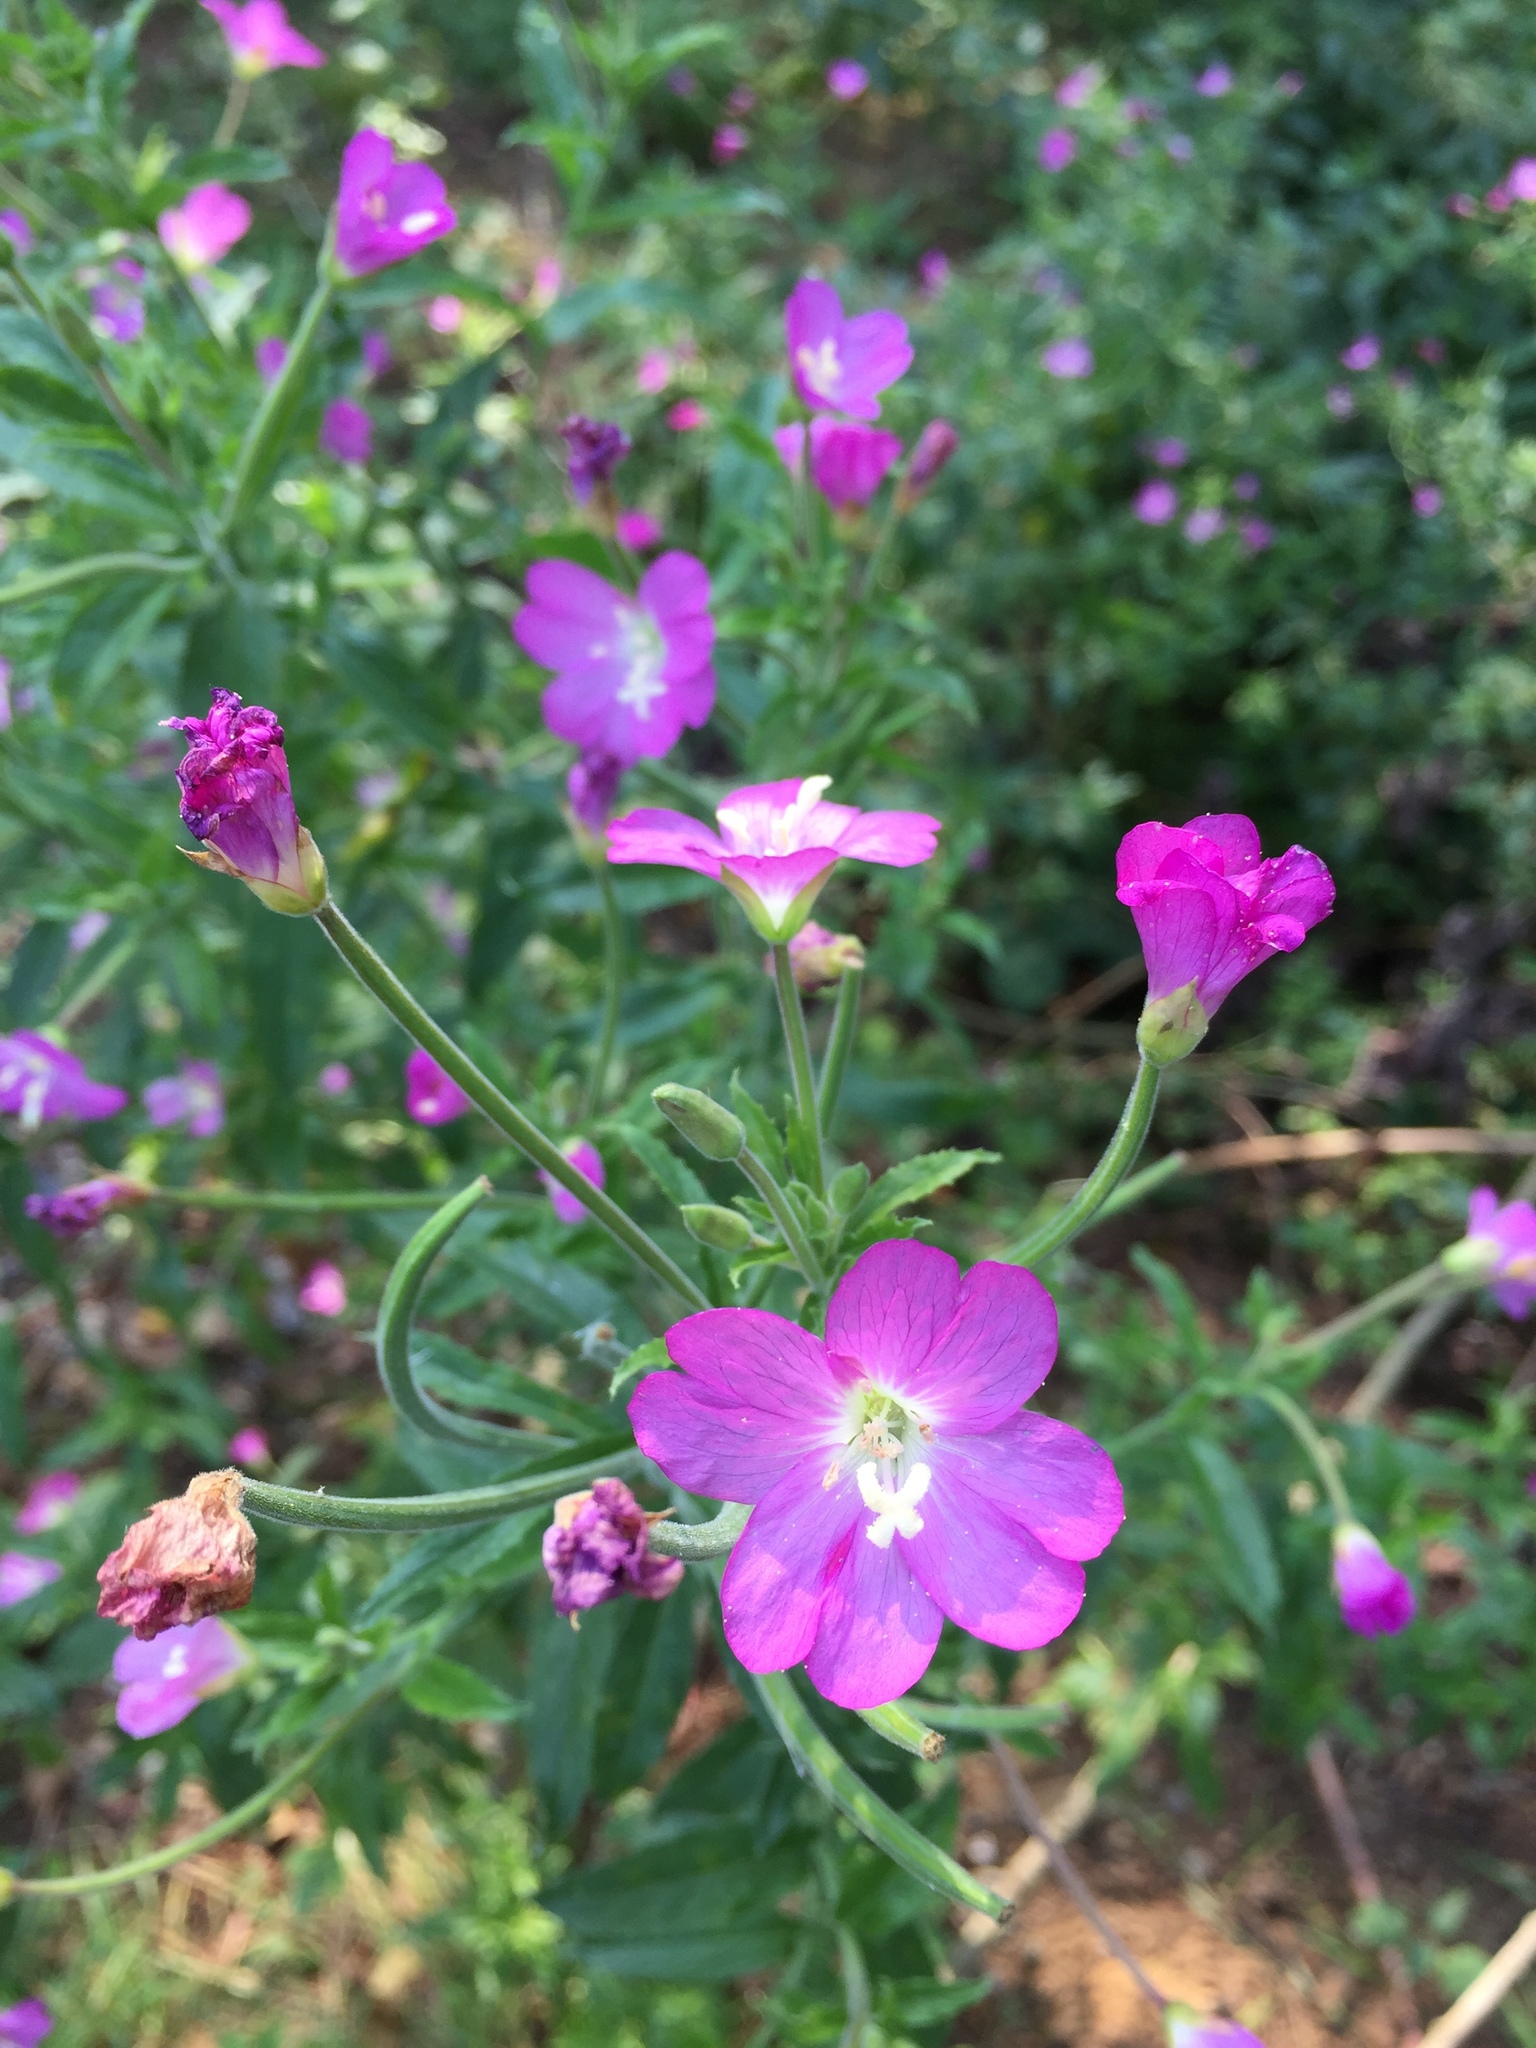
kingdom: Plantae
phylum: Tracheophyta
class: Magnoliopsida
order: Myrtales
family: Onagraceae
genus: Epilobium
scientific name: Epilobium hirsutum
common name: Great willowherb
